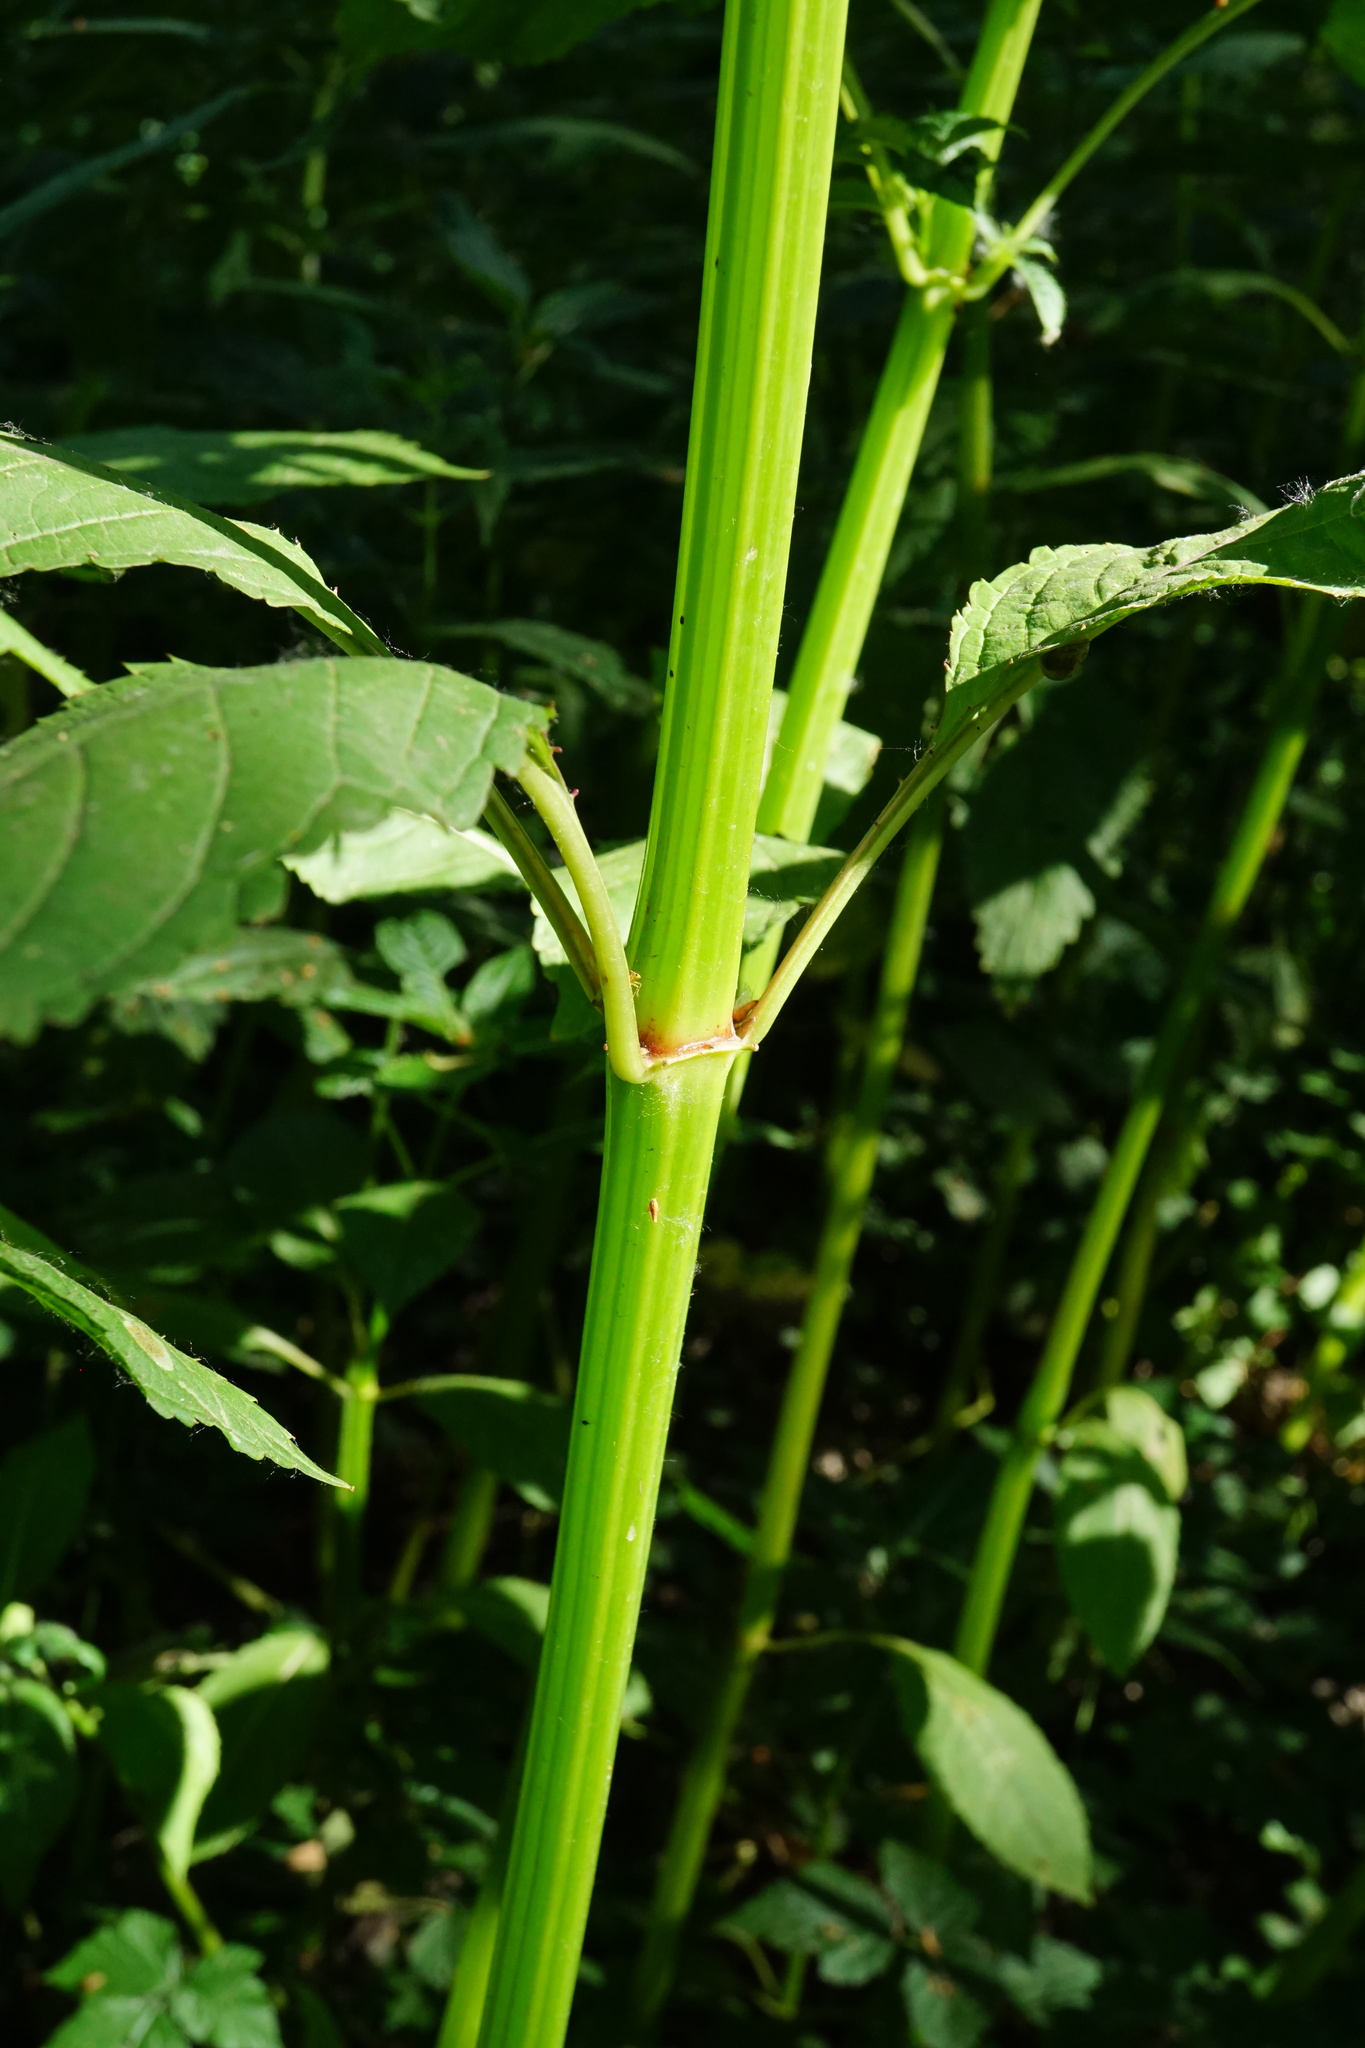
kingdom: Plantae
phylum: Tracheophyta
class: Magnoliopsida
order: Ericales
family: Balsaminaceae
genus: Impatiens
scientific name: Impatiens glandulifera
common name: Himalayan balsam
